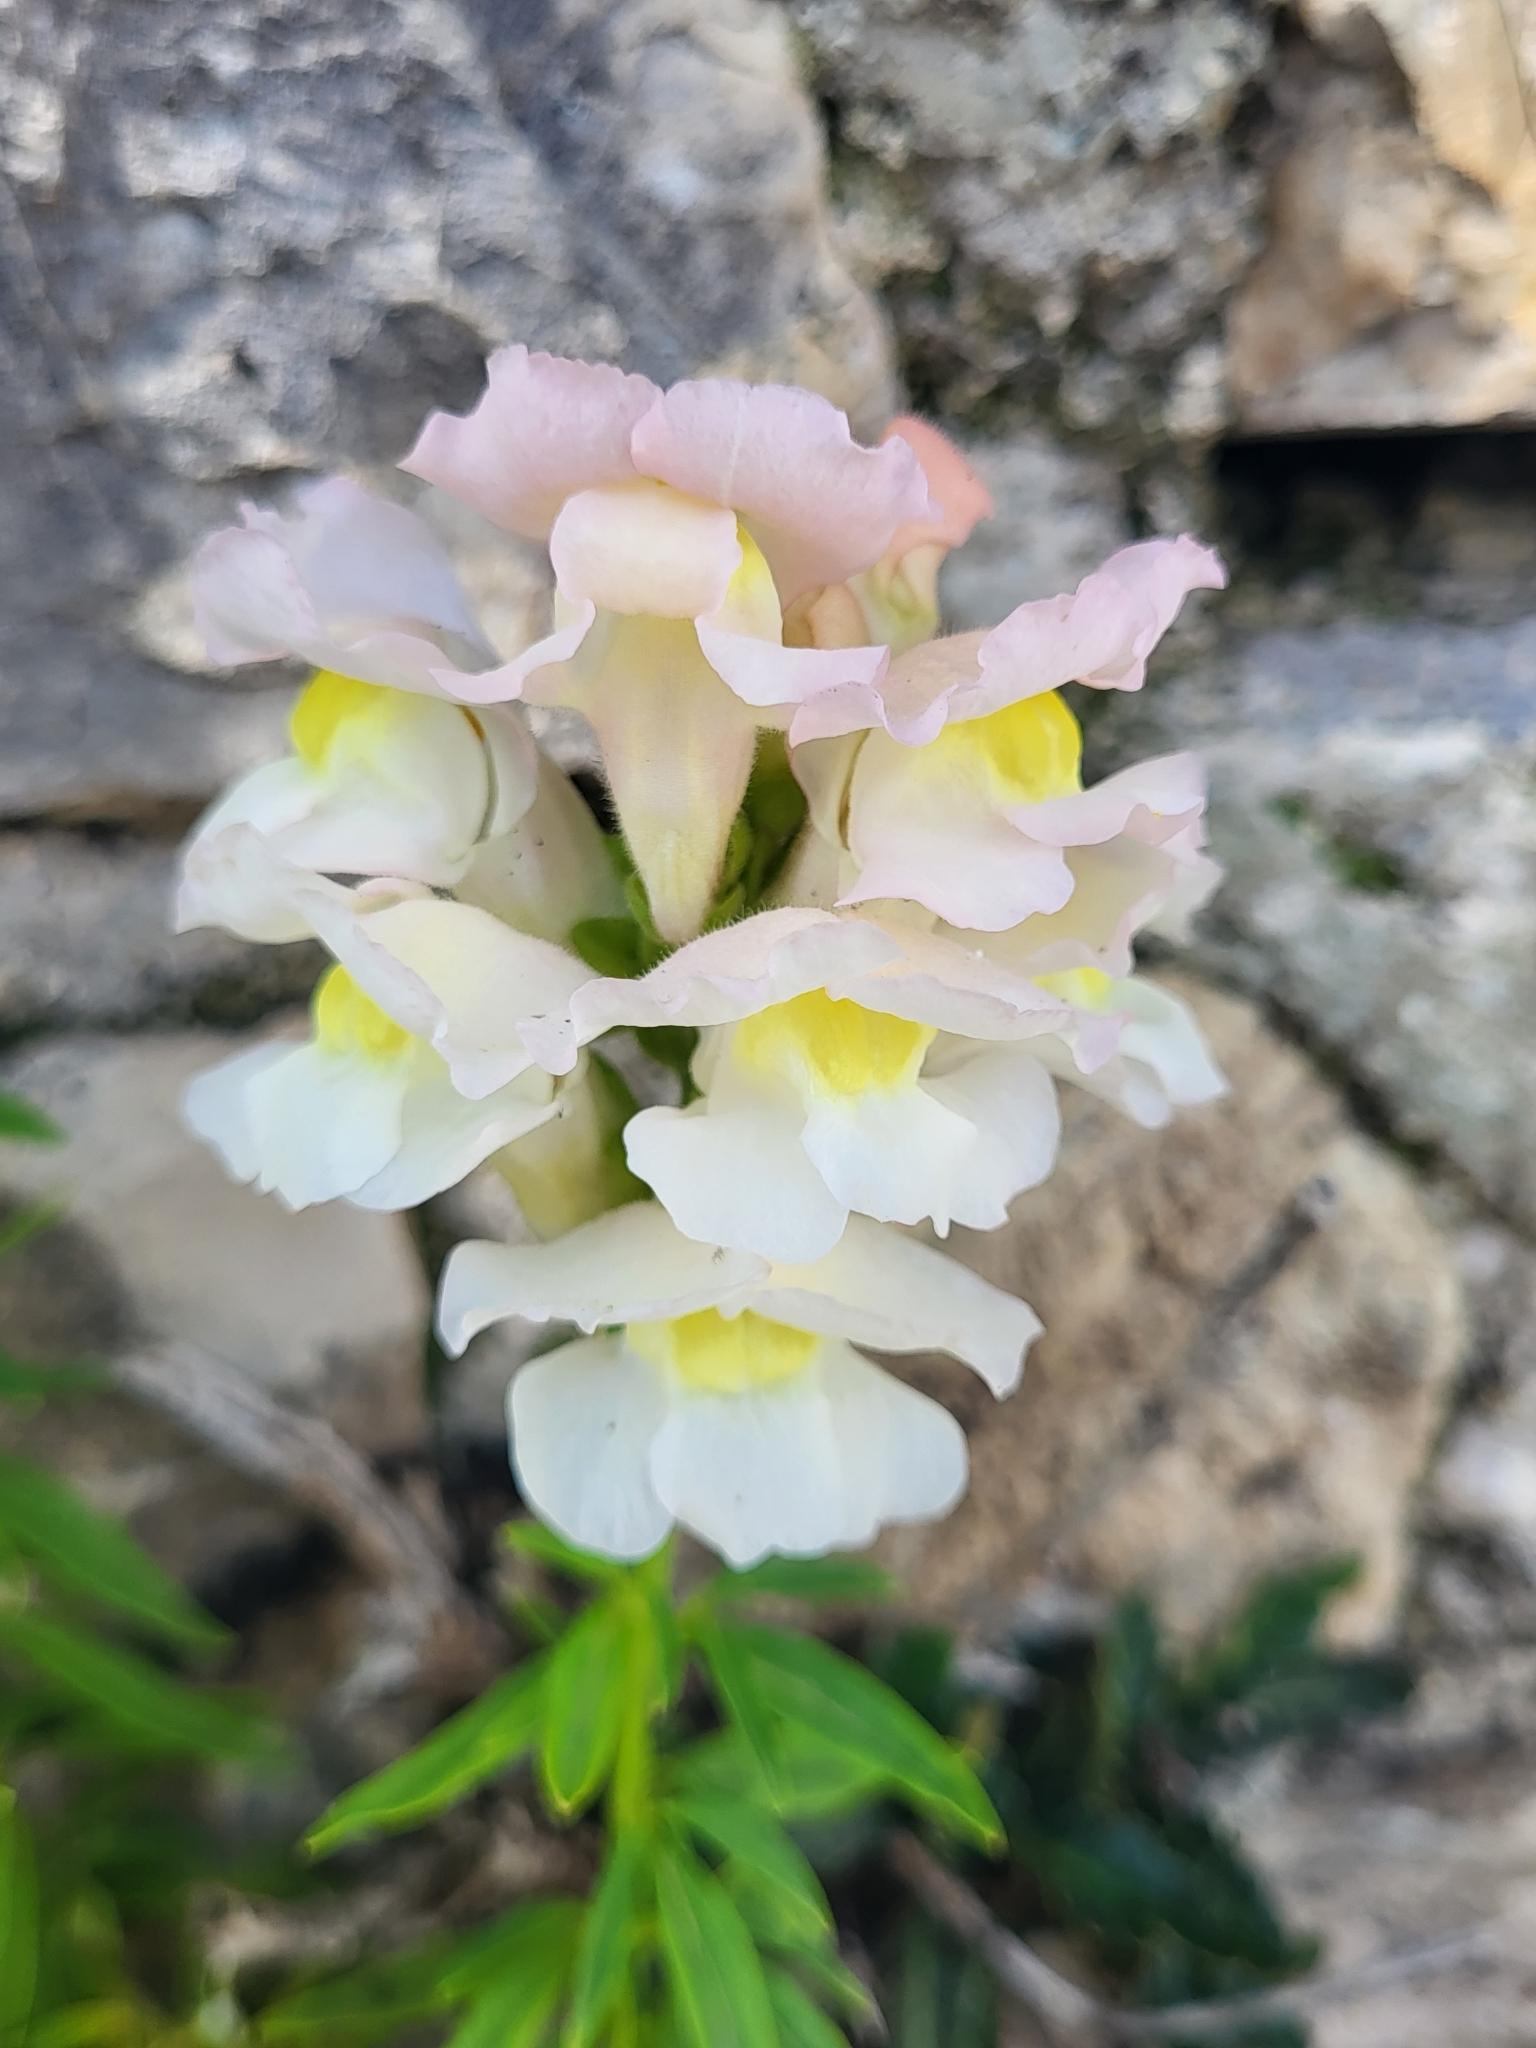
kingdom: Plantae
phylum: Tracheophyta
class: Magnoliopsida
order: Lamiales
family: Plantaginaceae
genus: Antirrhinum
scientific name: Antirrhinum majus
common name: Snapdragon
